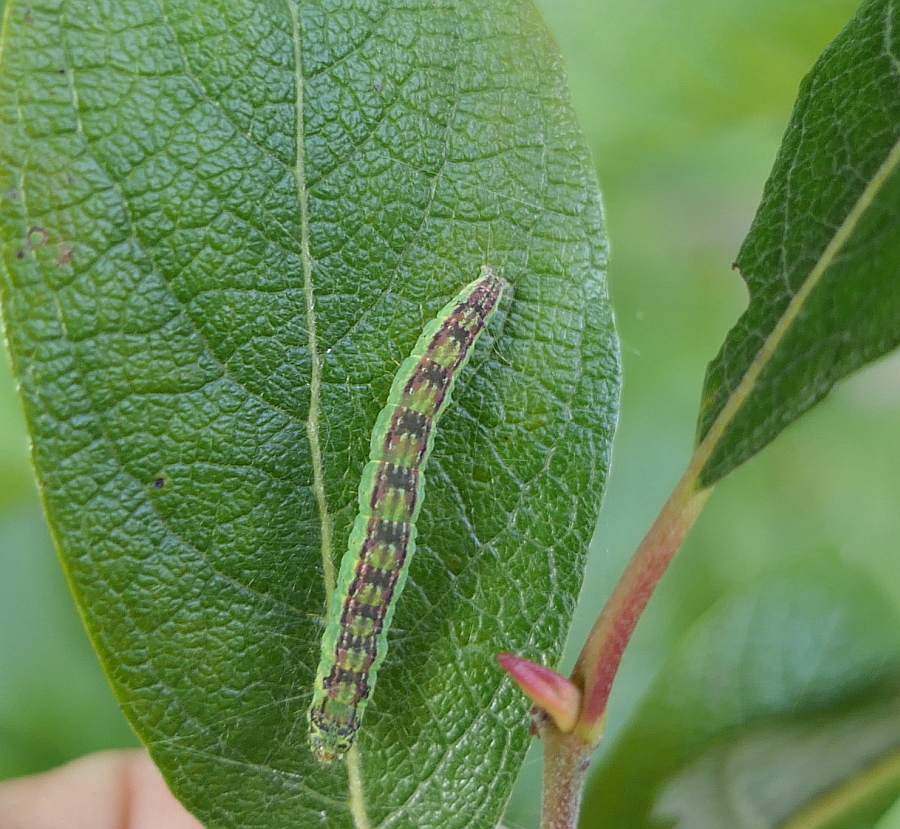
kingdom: Animalia
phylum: Arthropoda
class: Insecta
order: Lepidoptera
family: Pyralidae
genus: Oreana
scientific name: Oreana unicolorella
